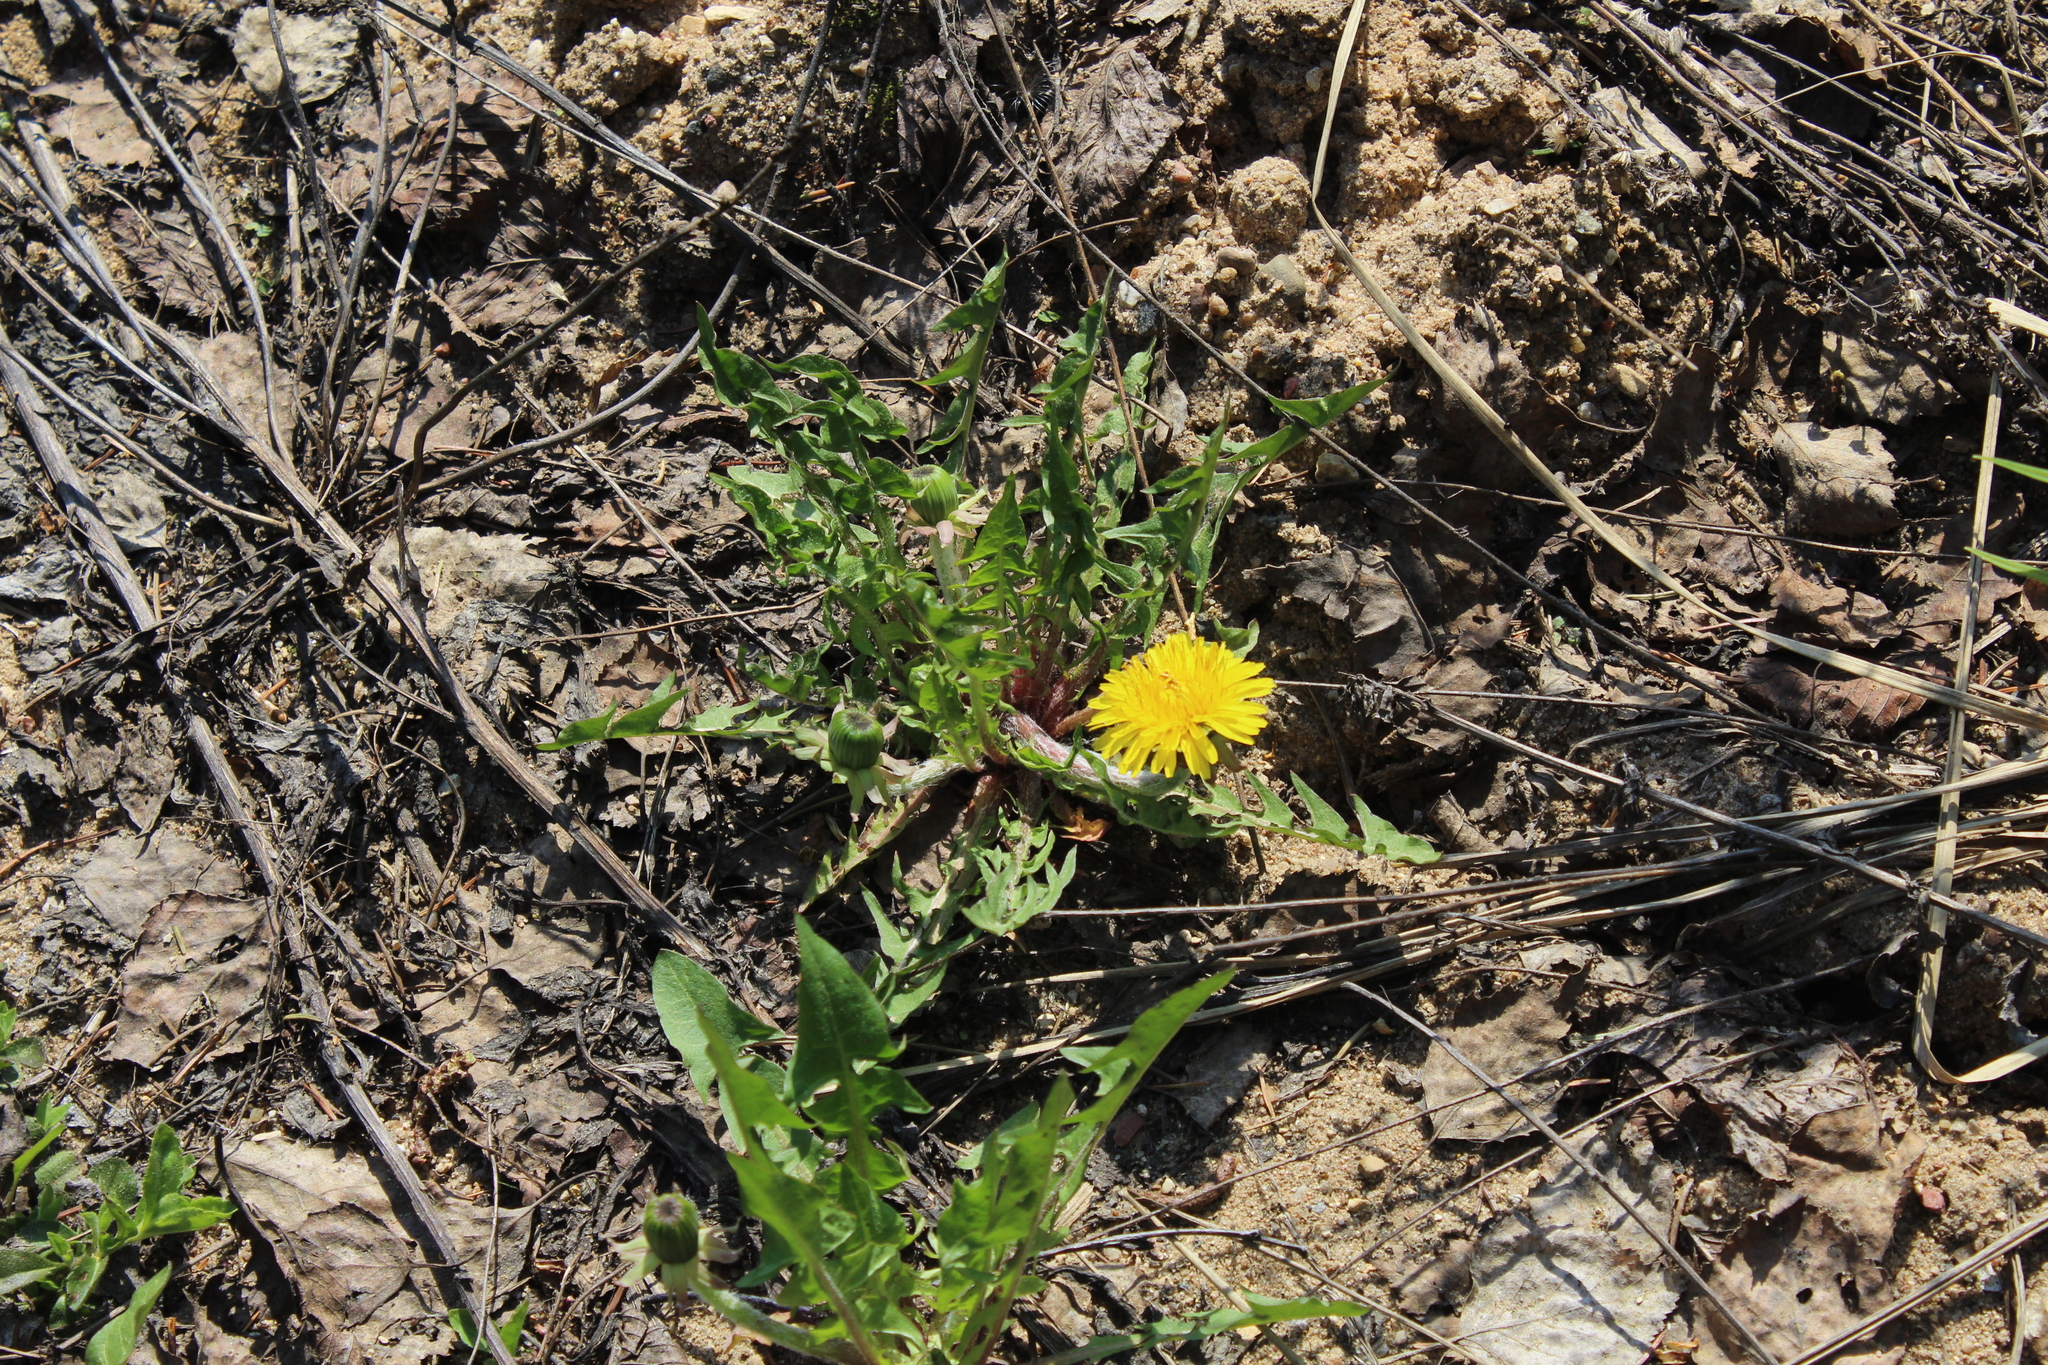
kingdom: Plantae
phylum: Tracheophyta
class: Magnoliopsida
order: Asterales
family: Asteraceae
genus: Taraxacum
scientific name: Taraxacum officinale
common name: Common dandelion
